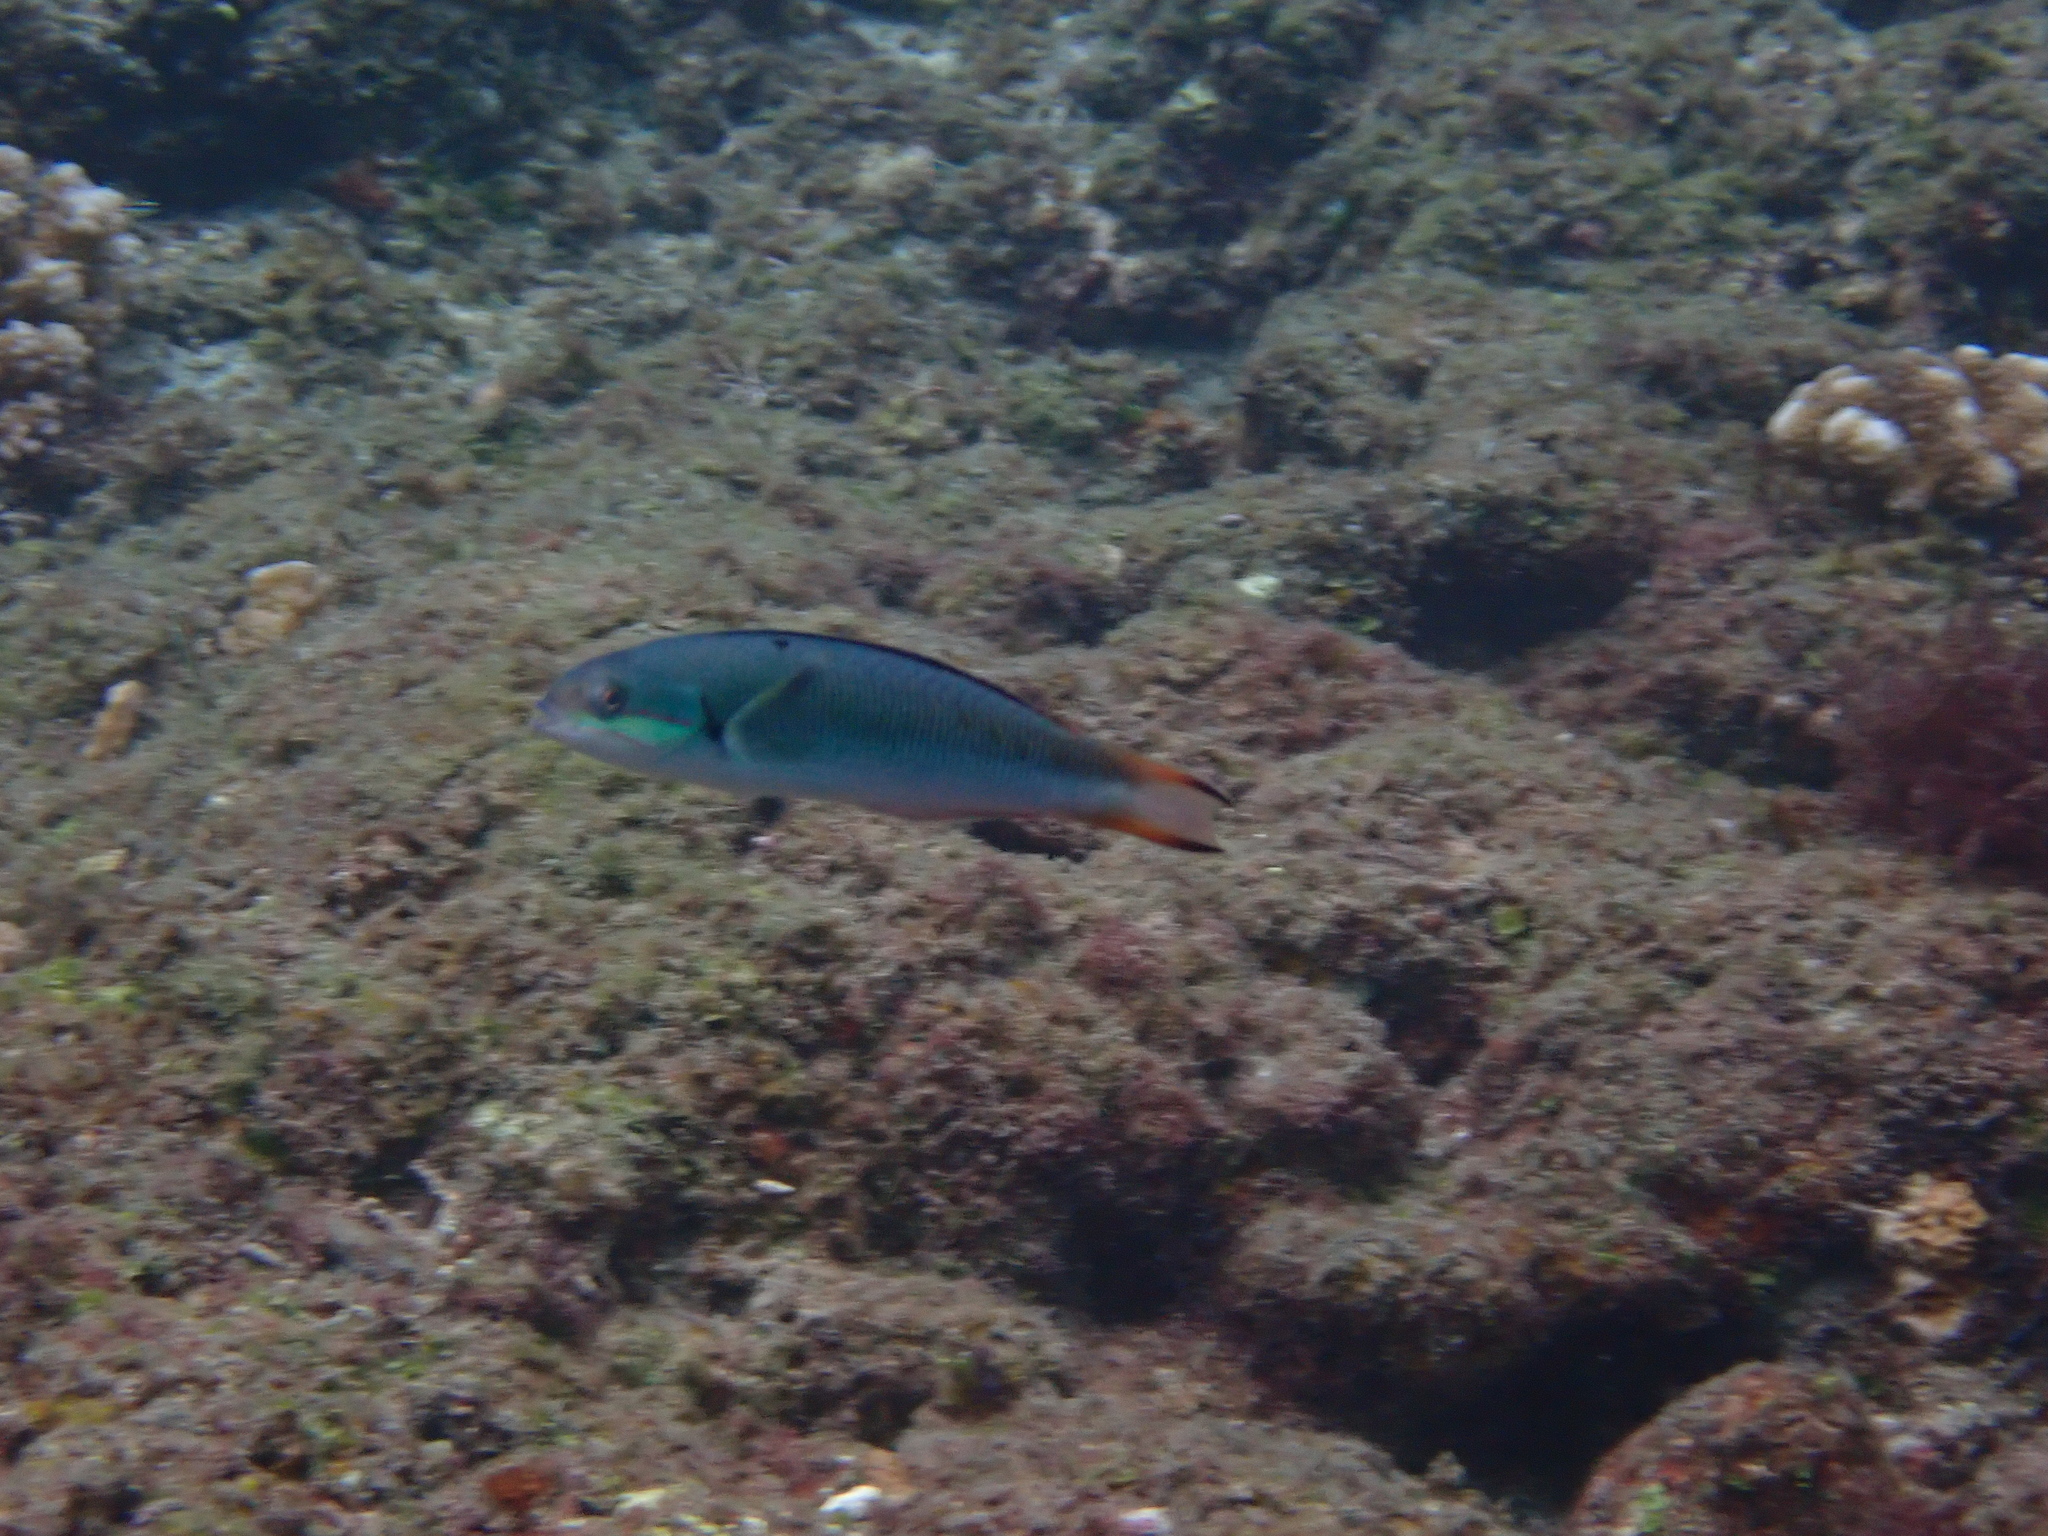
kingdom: Animalia
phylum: Chordata
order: Perciformes
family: Labridae
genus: Thalassoma
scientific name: Thalassoma amblycephalum
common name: Bluehead wrasse
